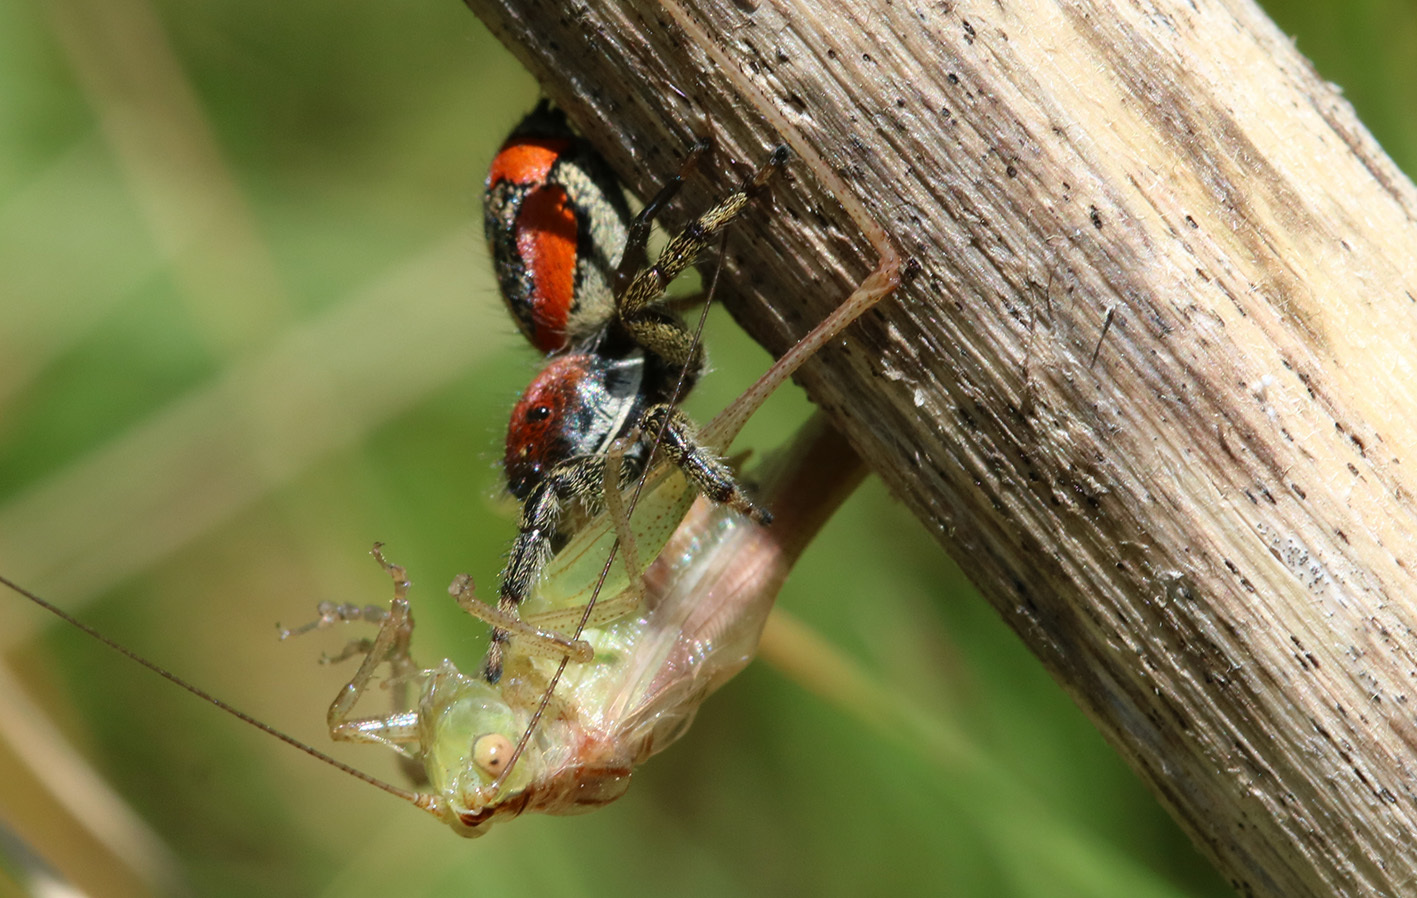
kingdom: Animalia
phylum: Arthropoda
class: Arachnida
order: Araneae
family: Salticidae
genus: Phiale
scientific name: Phiale roburifoliata
